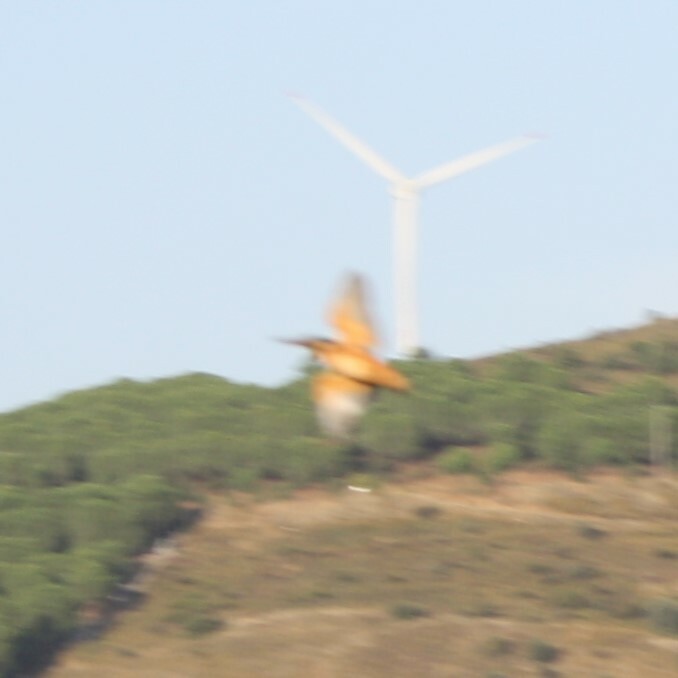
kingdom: Animalia
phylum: Chordata
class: Aves
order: Coraciiformes
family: Alcedinidae
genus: Alcedo
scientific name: Alcedo atthis
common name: Common kingfisher
